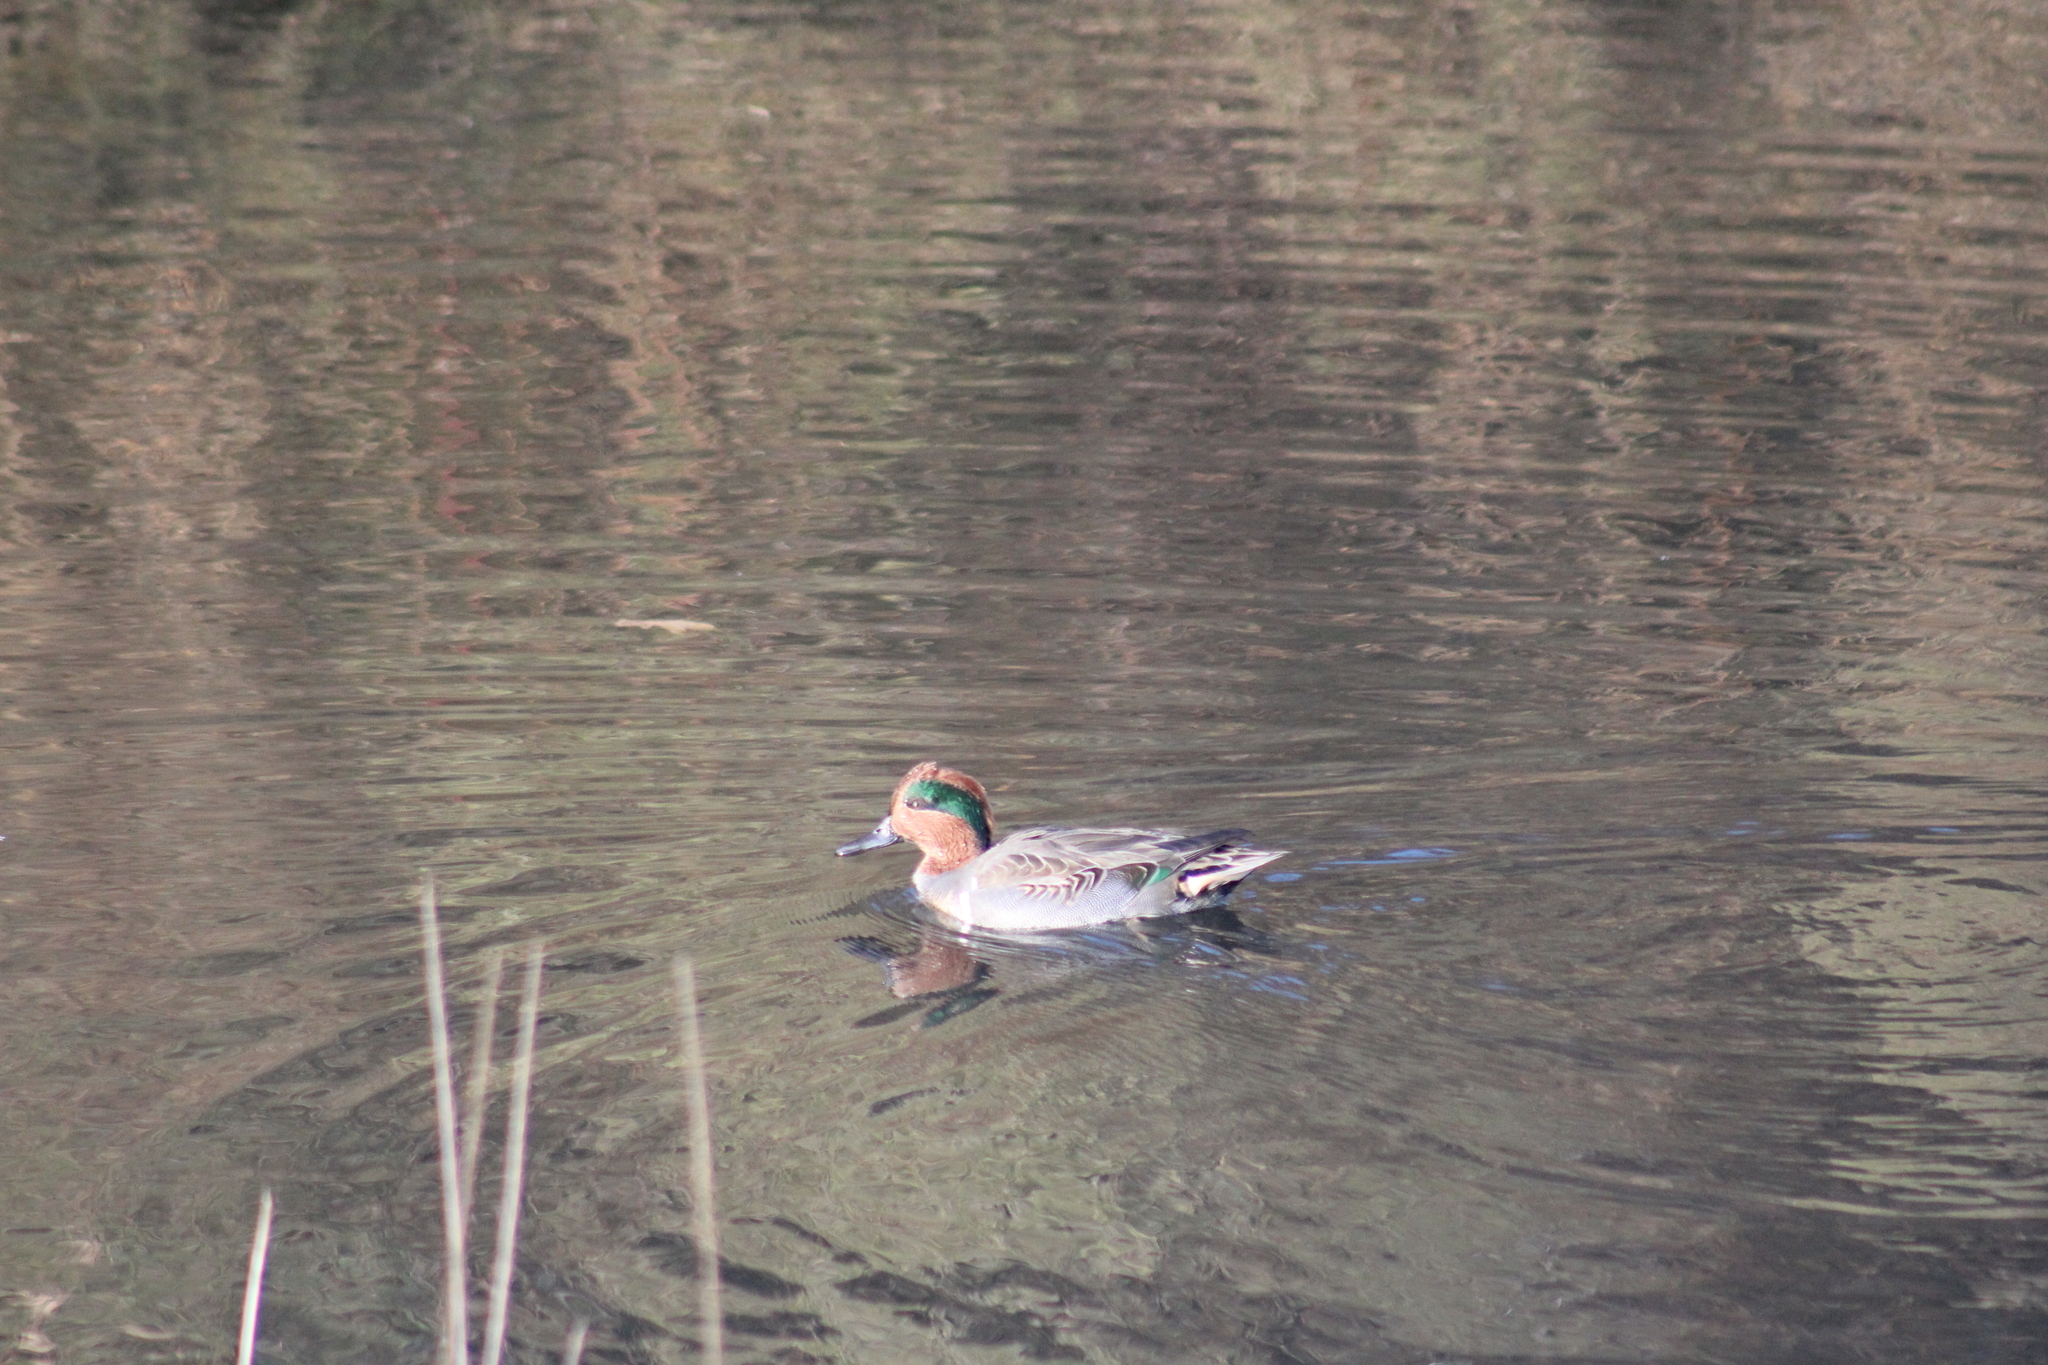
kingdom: Animalia
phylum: Chordata
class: Aves
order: Anseriformes
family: Anatidae
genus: Anas
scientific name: Anas crecca
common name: Eurasian teal
